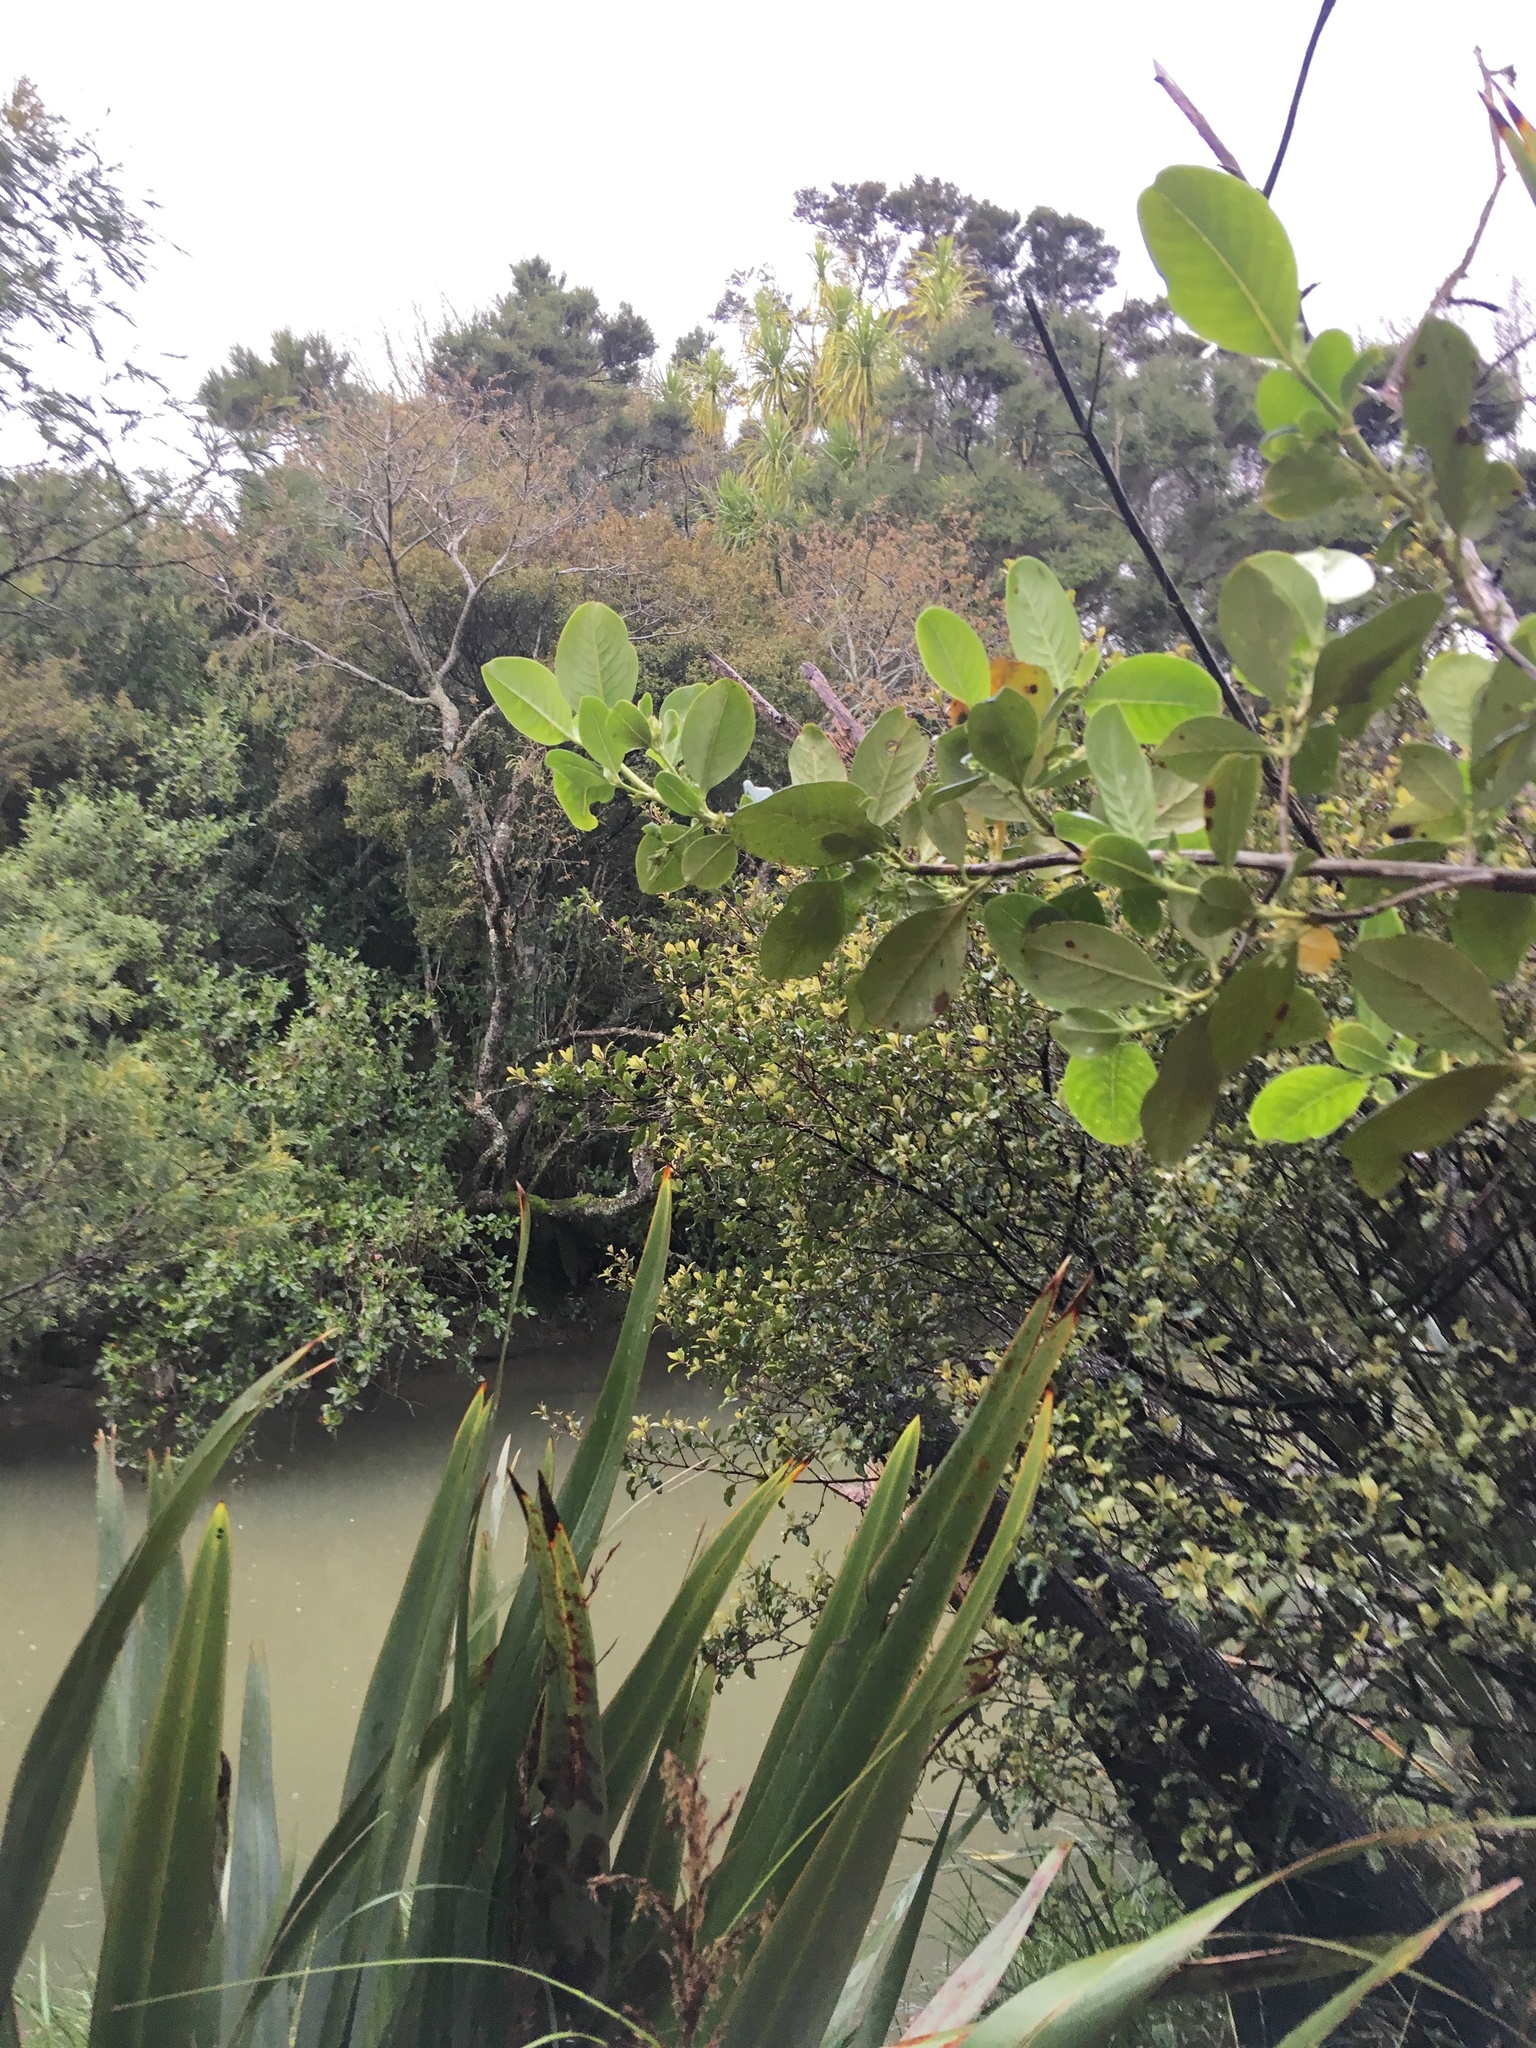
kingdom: Plantae
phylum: Tracheophyta
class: Magnoliopsida
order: Gentianales
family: Rubiaceae
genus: Coprosma
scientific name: Coprosma robusta
